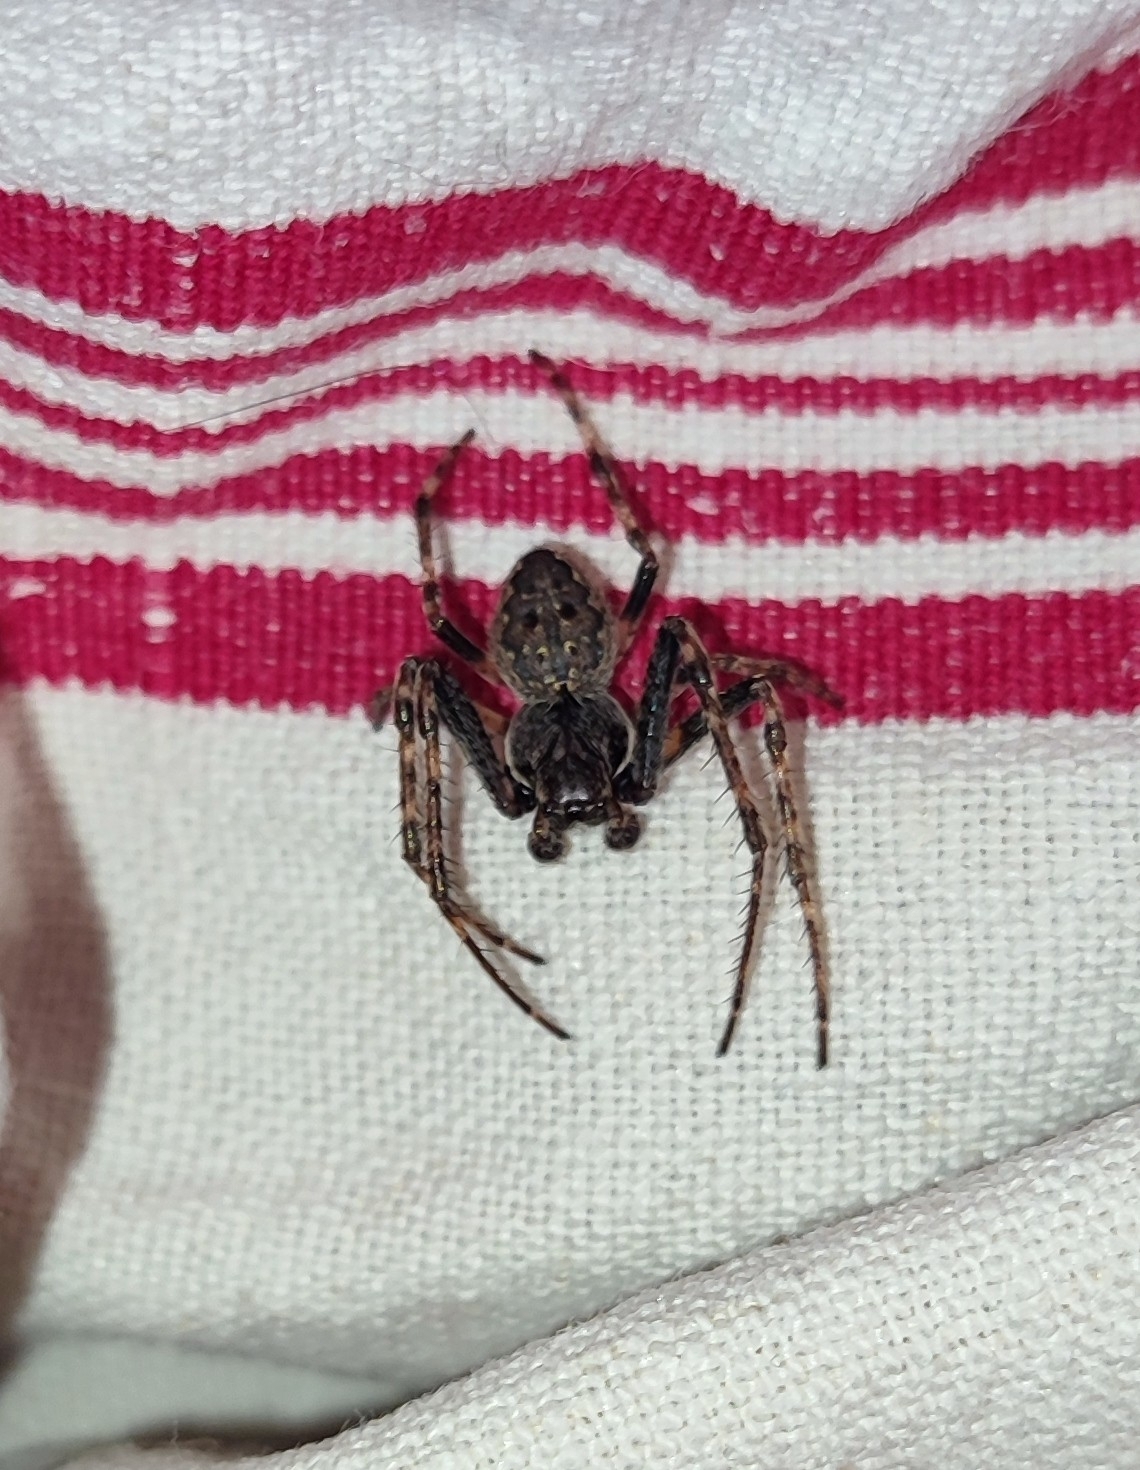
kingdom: Animalia
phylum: Arthropoda
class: Arachnida
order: Araneae
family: Araneidae
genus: Nuctenea
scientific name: Nuctenea umbratica
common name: Toad spider
